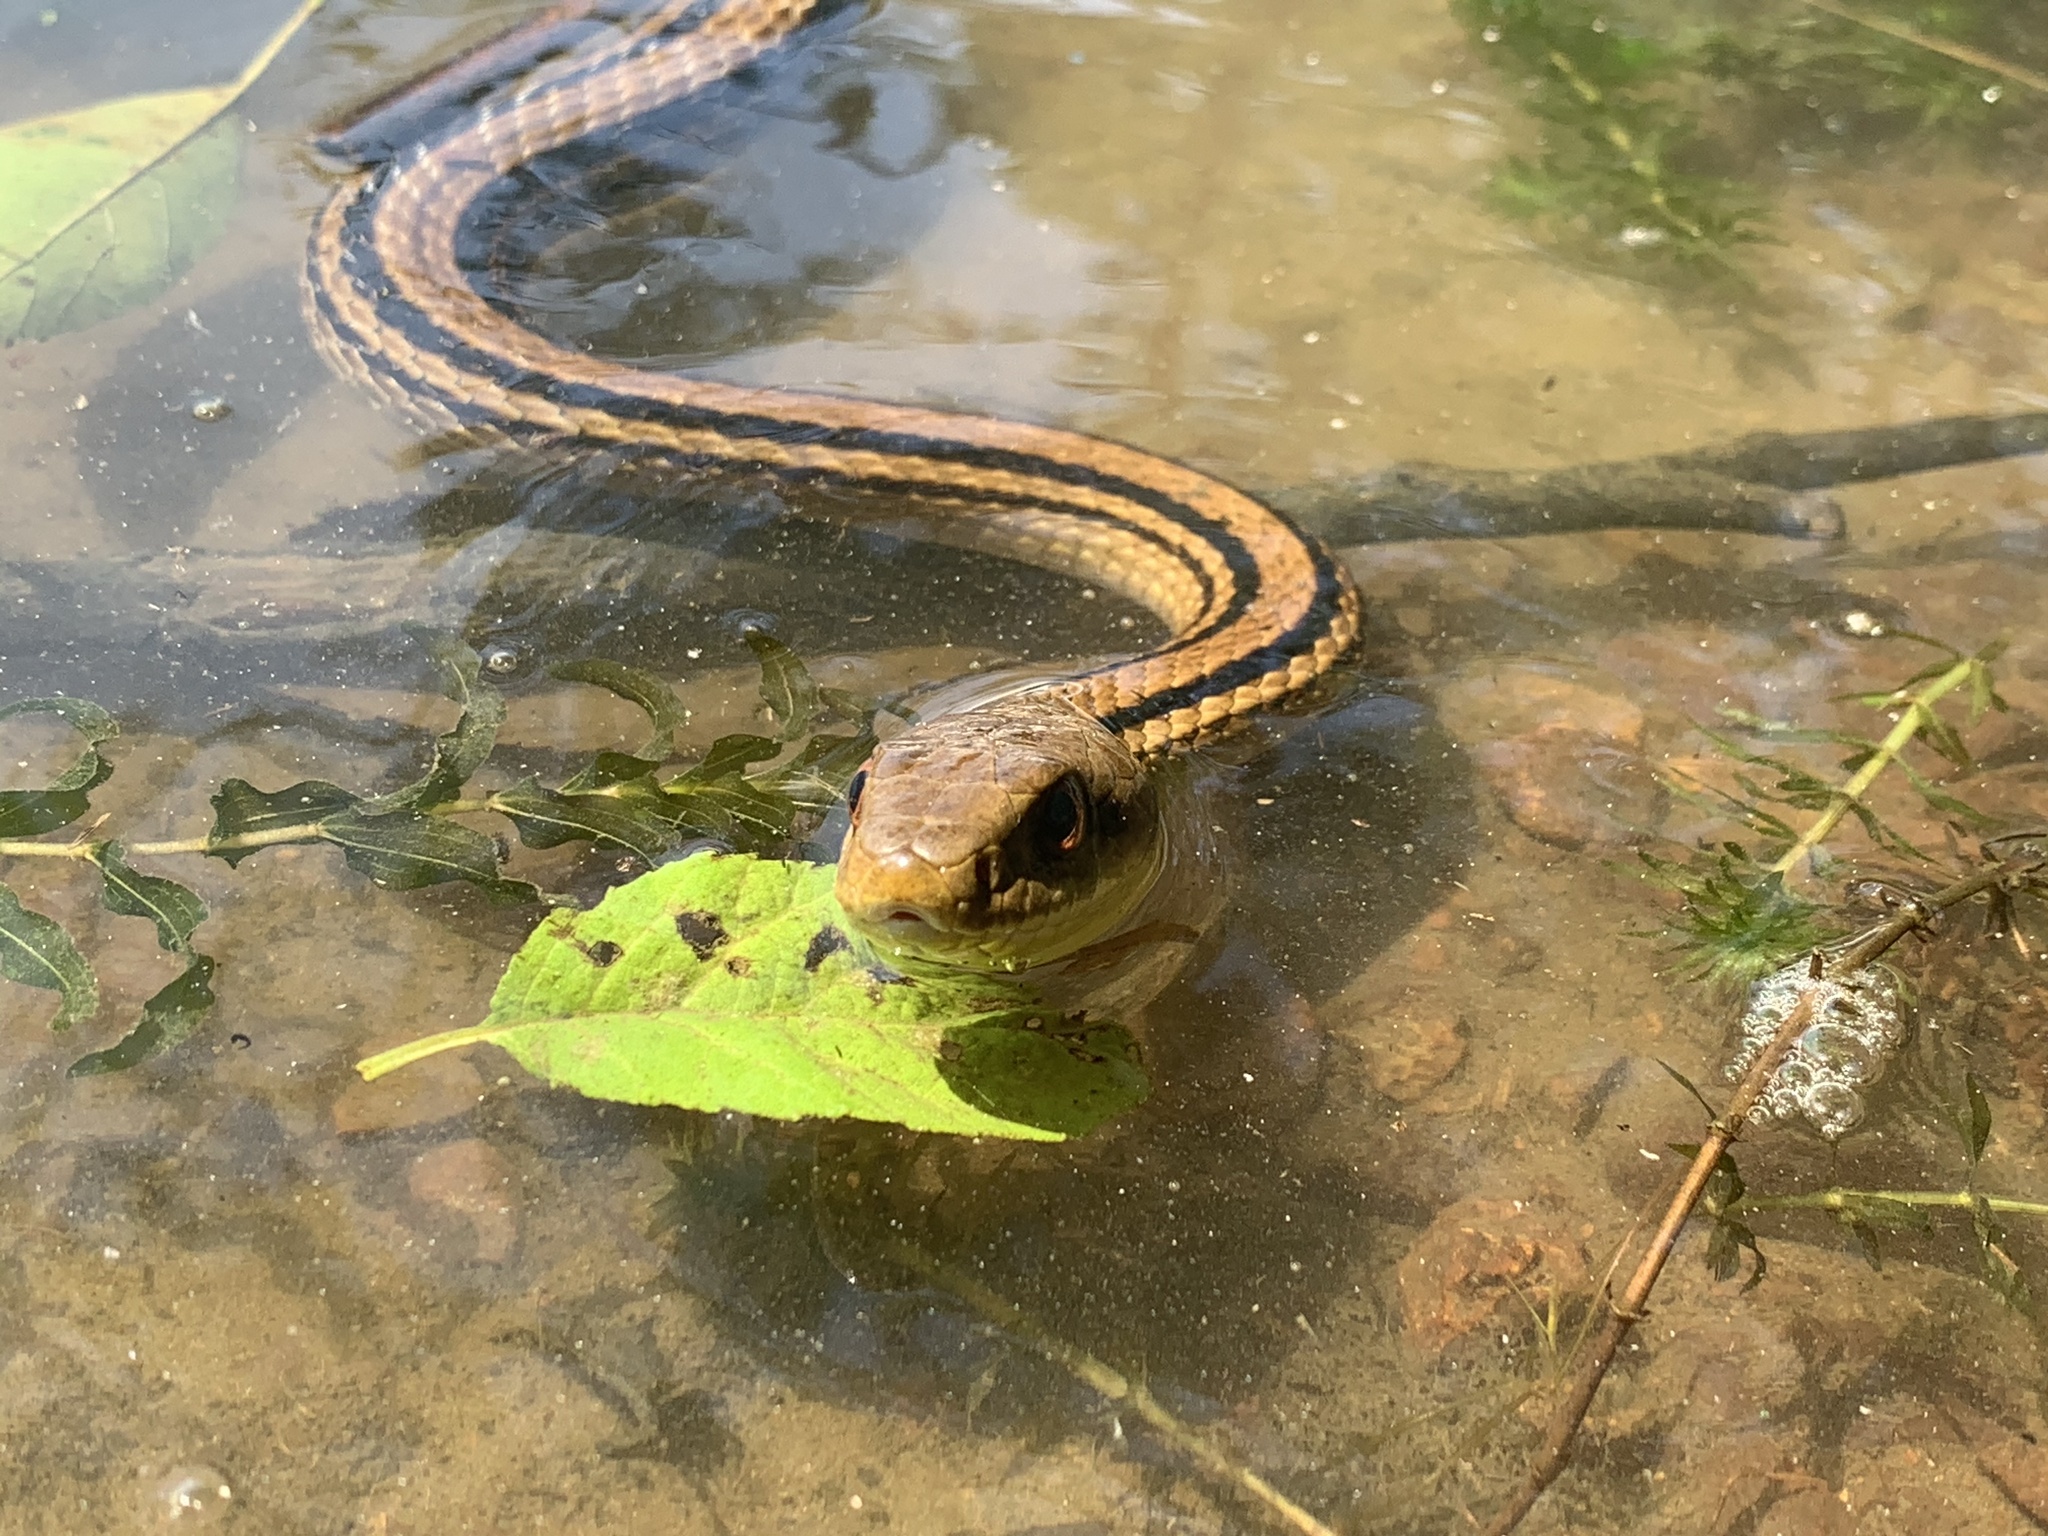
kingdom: Animalia
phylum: Chordata
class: Squamata
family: Colubridae
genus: Elaphe
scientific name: Elaphe quadrivirgata
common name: Japanese four-lined ratsnake
